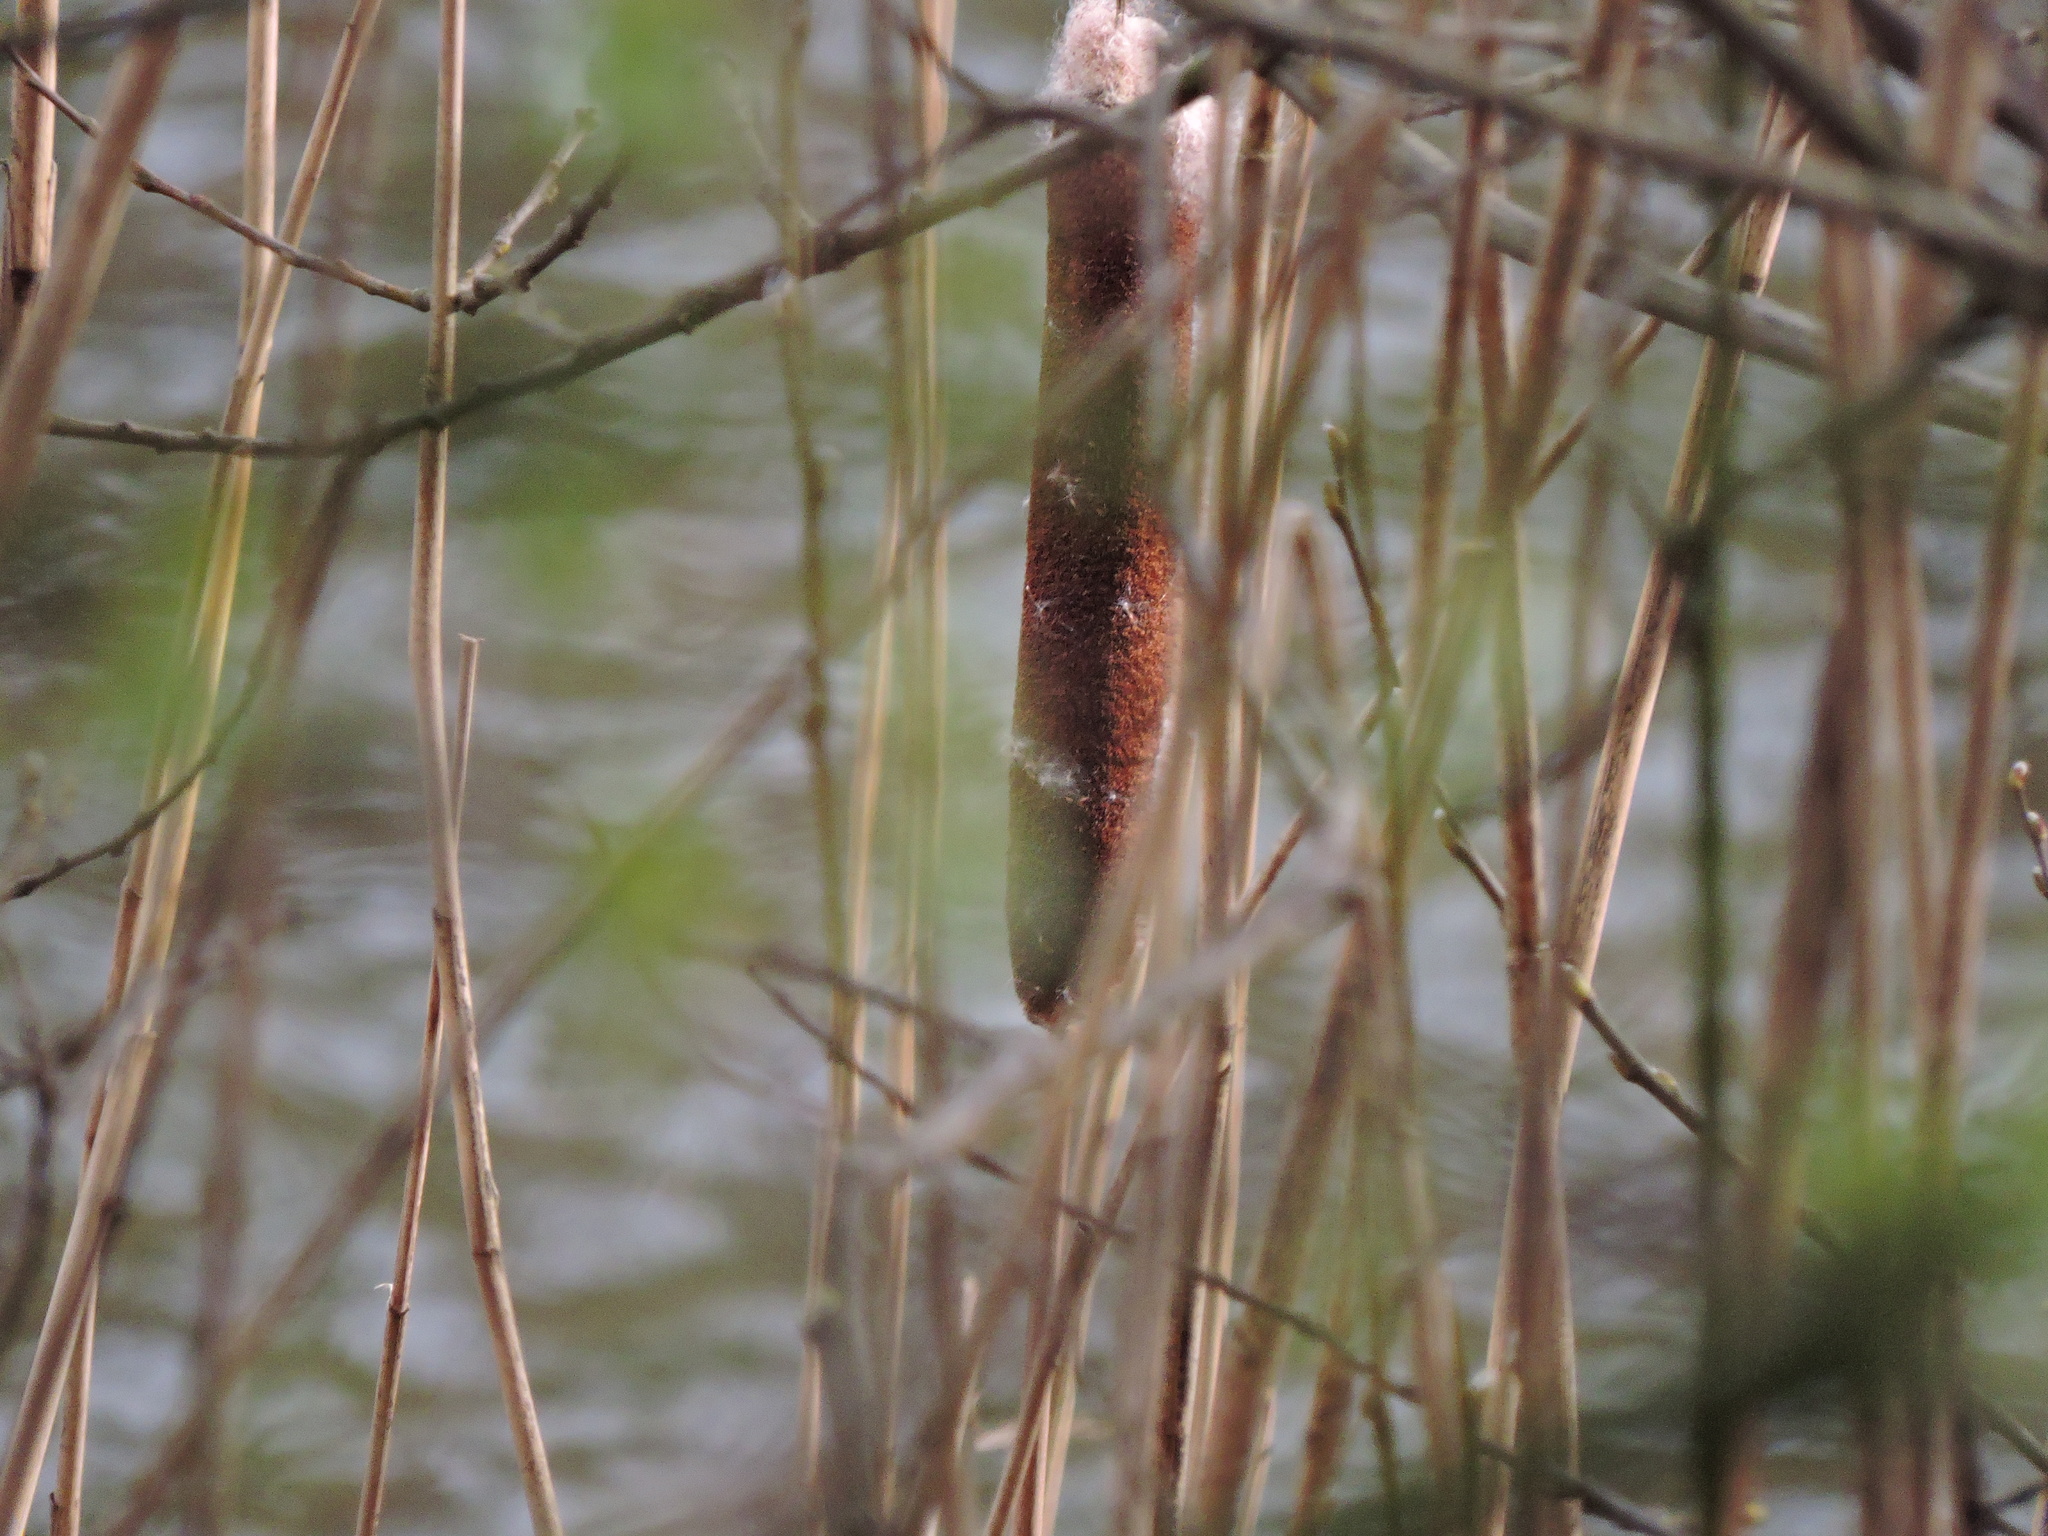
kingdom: Plantae
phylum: Tracheophyta
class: Liliopsida
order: Poales
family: Typhaceae
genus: Typha
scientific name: Typha latifolia
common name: Broadleaf cattail
